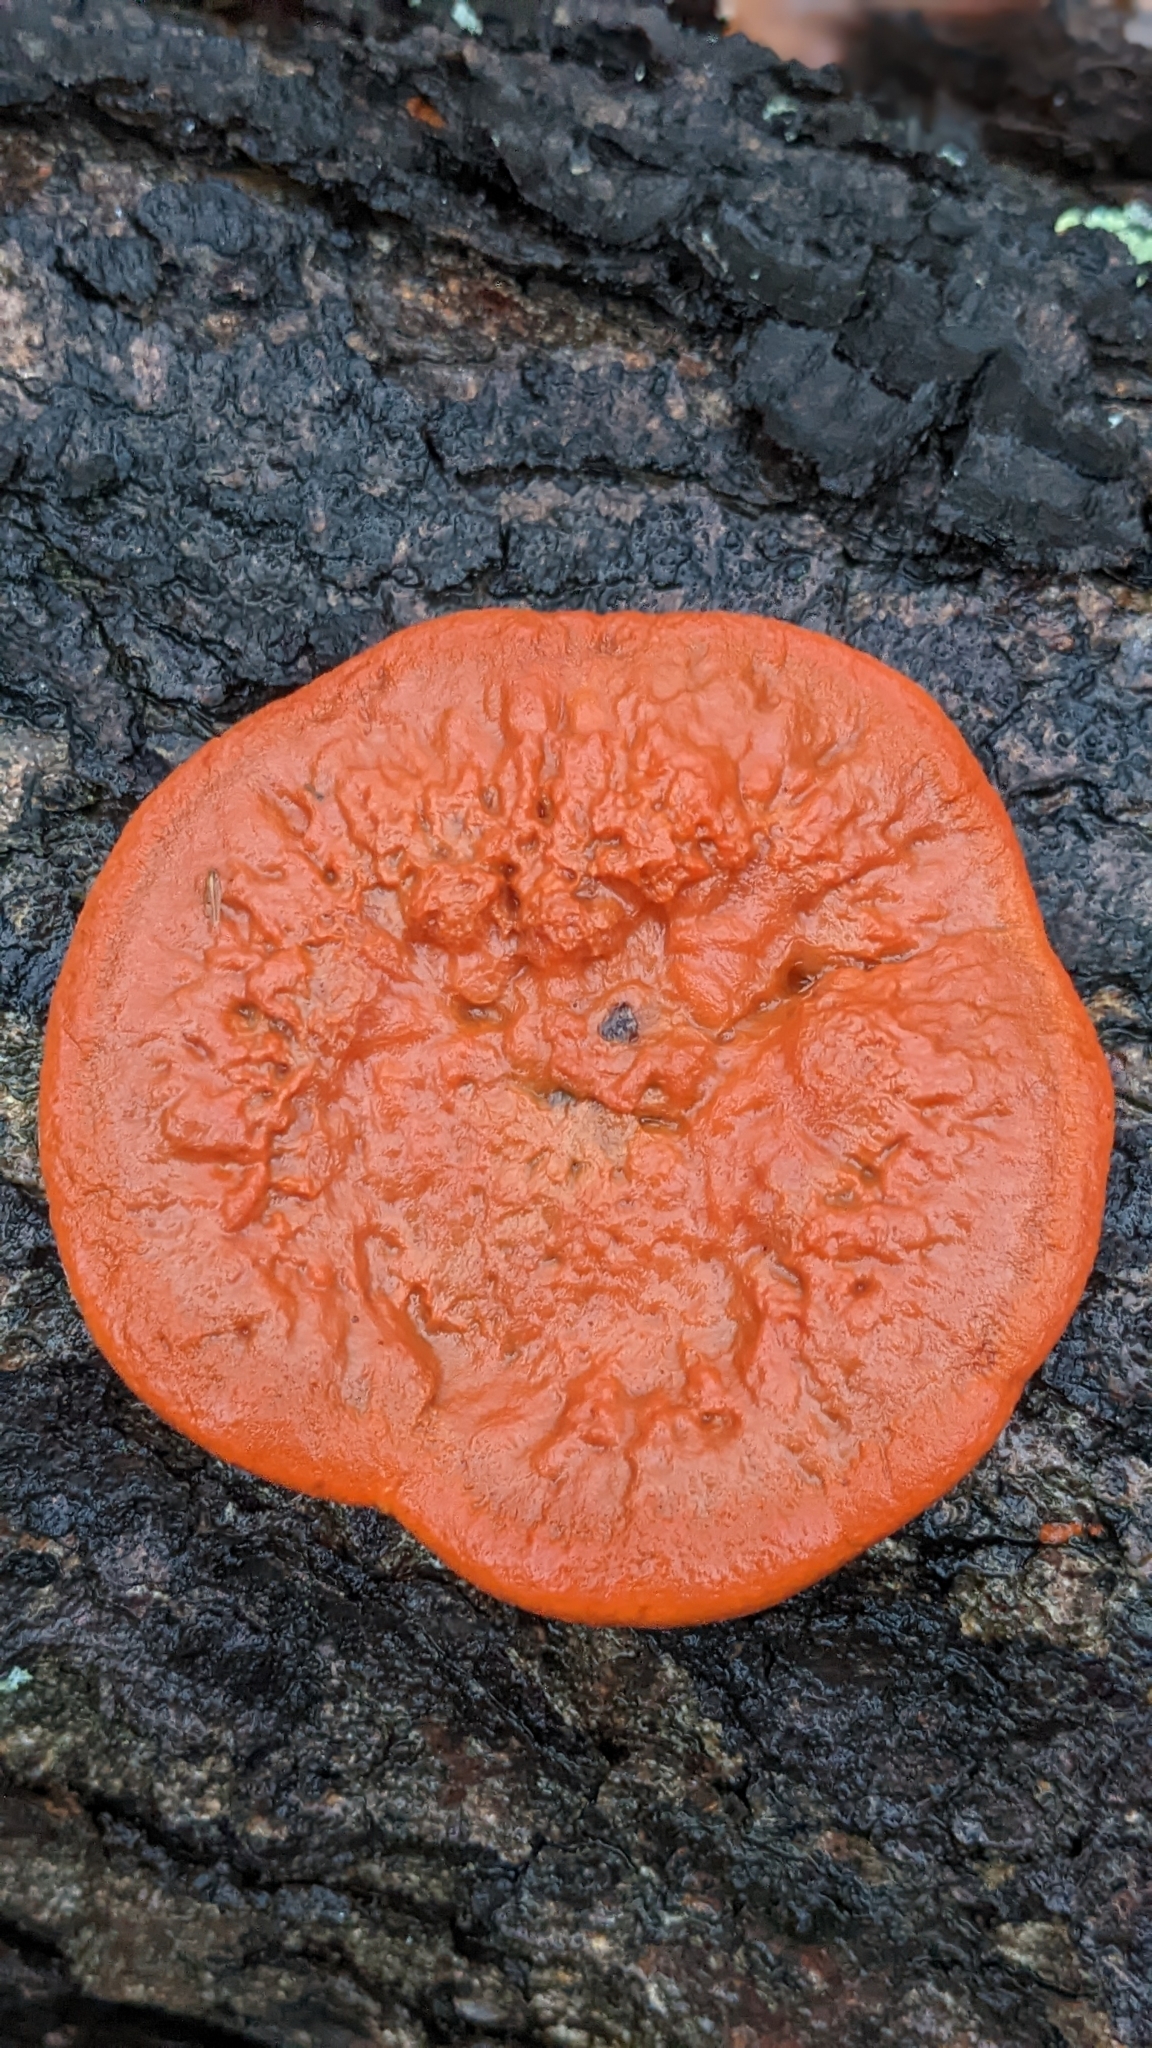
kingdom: Fungi
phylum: Basidiomycota
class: Agaricomycetes
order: Polyporales
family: Polyporaceae
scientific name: Polyporaceae
